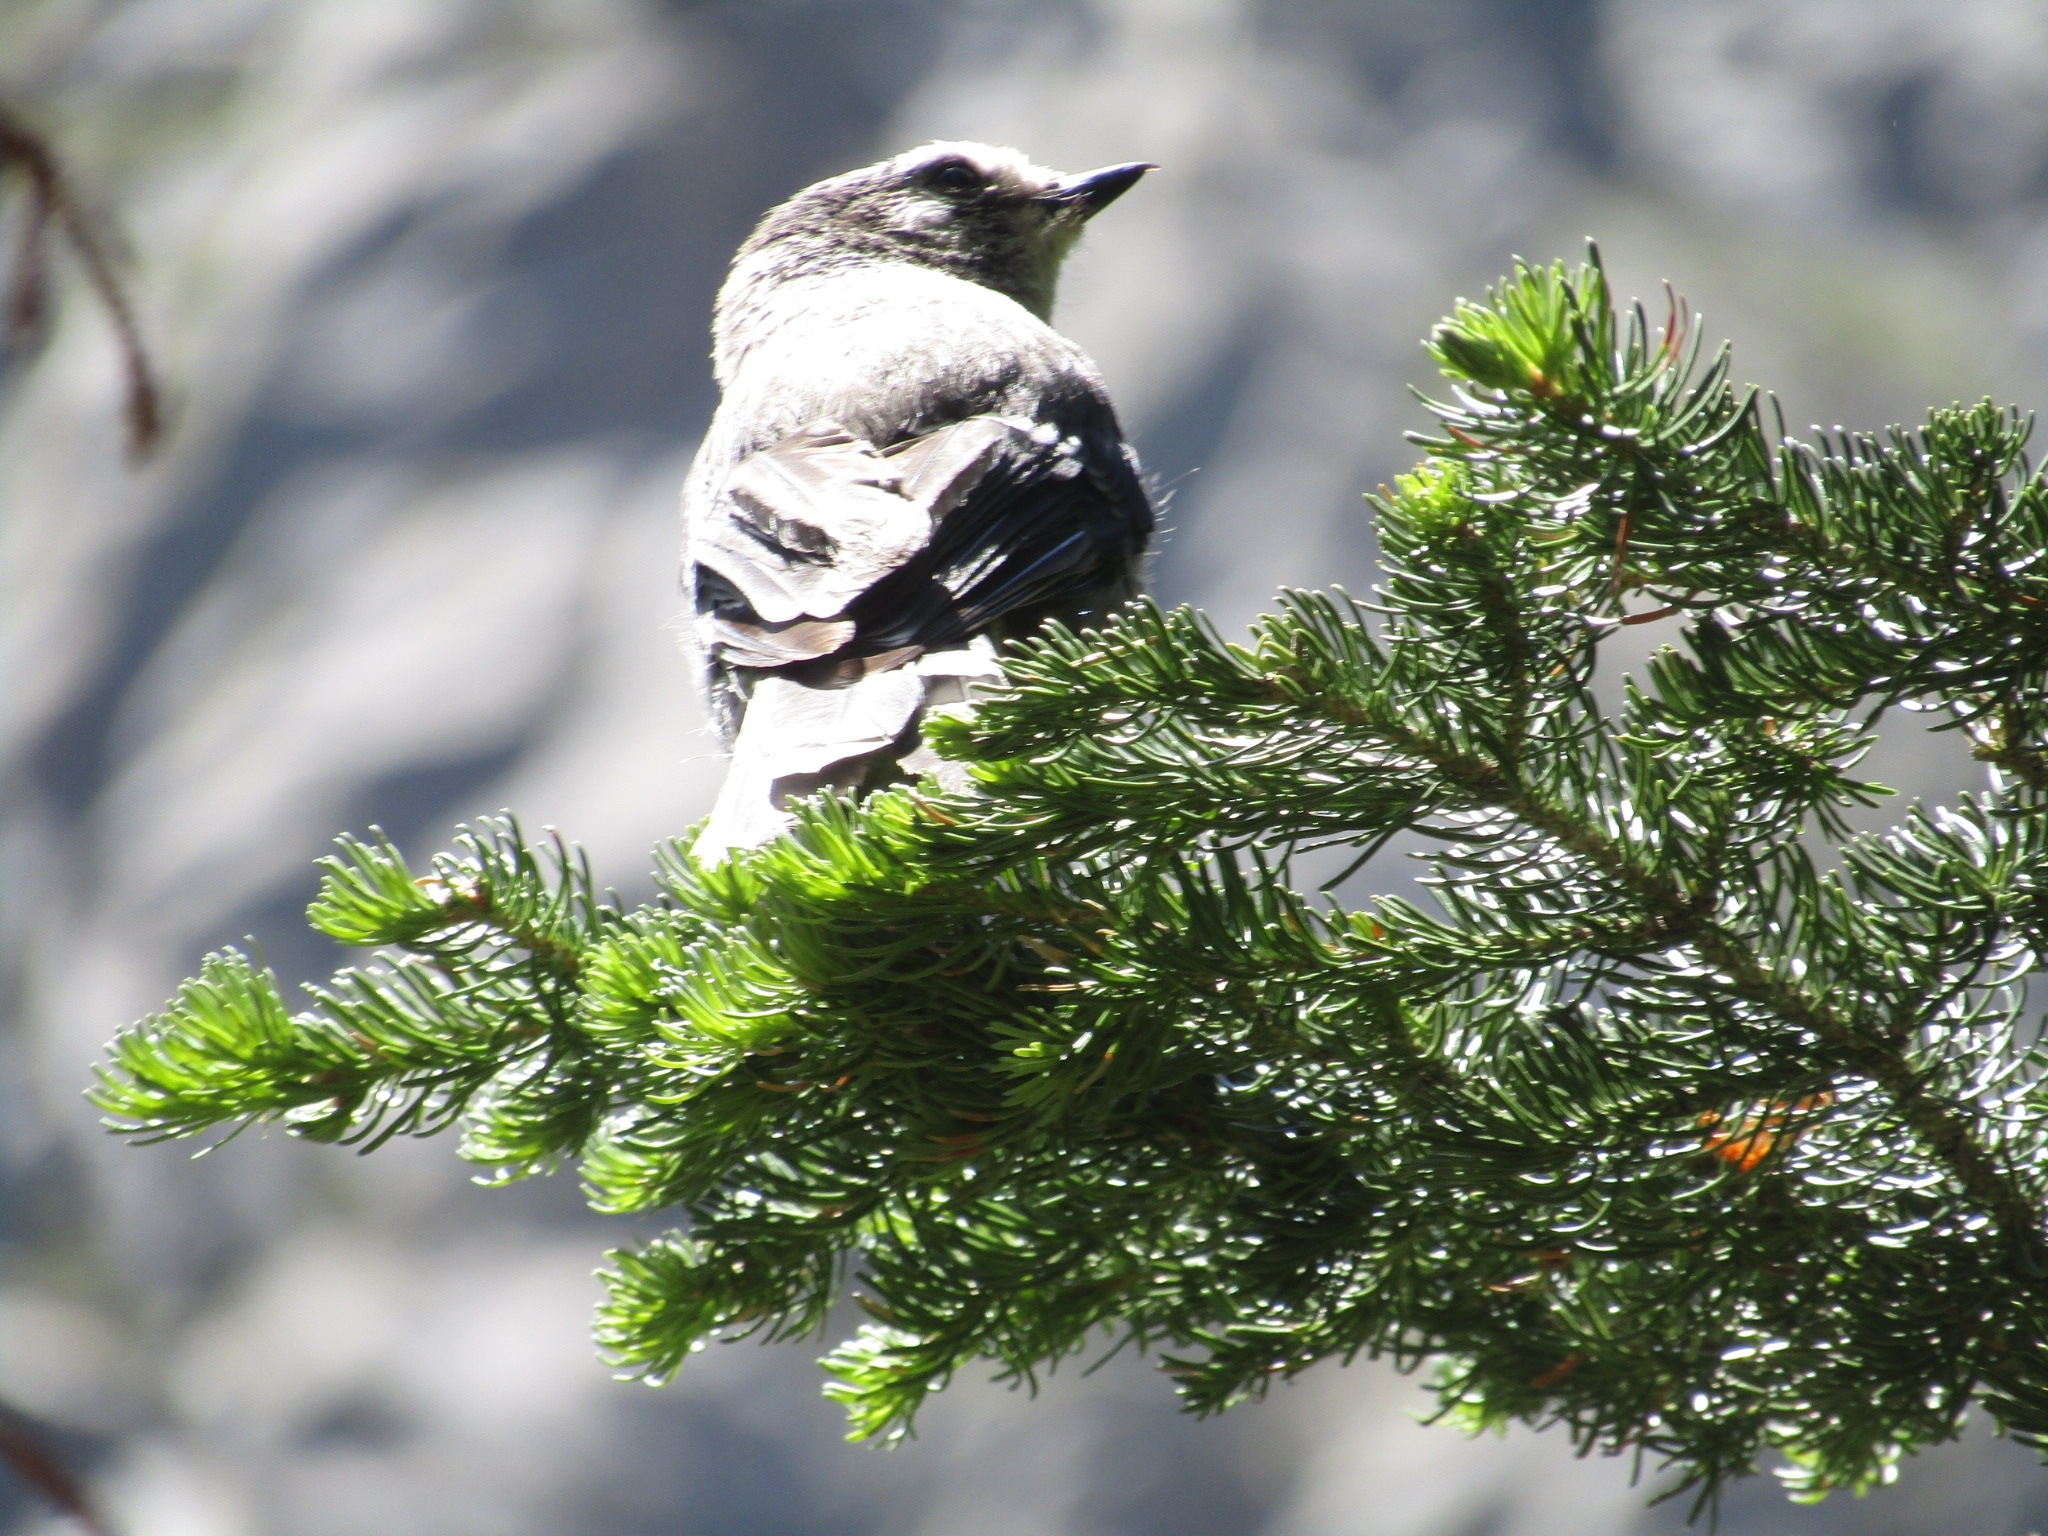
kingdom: Animalia
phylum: Chordata
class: Aves
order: Passeriformes
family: Corvidae
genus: Perisoreus
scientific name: Perisoreus canadensis
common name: Gray jay
